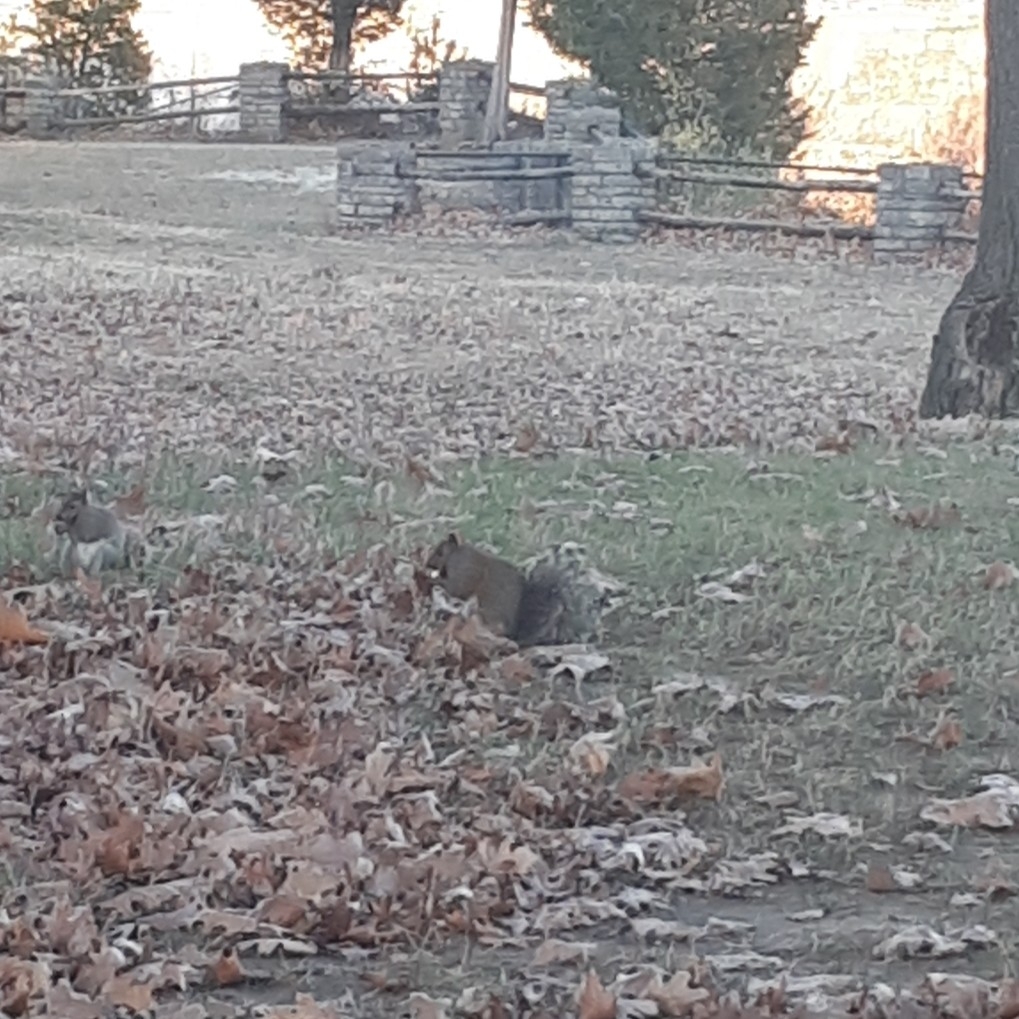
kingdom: Animalia
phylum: Chordata
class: Mammalia
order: Rodentia
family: Sciuridae
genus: Sciurus
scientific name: Sciurus carolinensis
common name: Eastern gray squirrel
